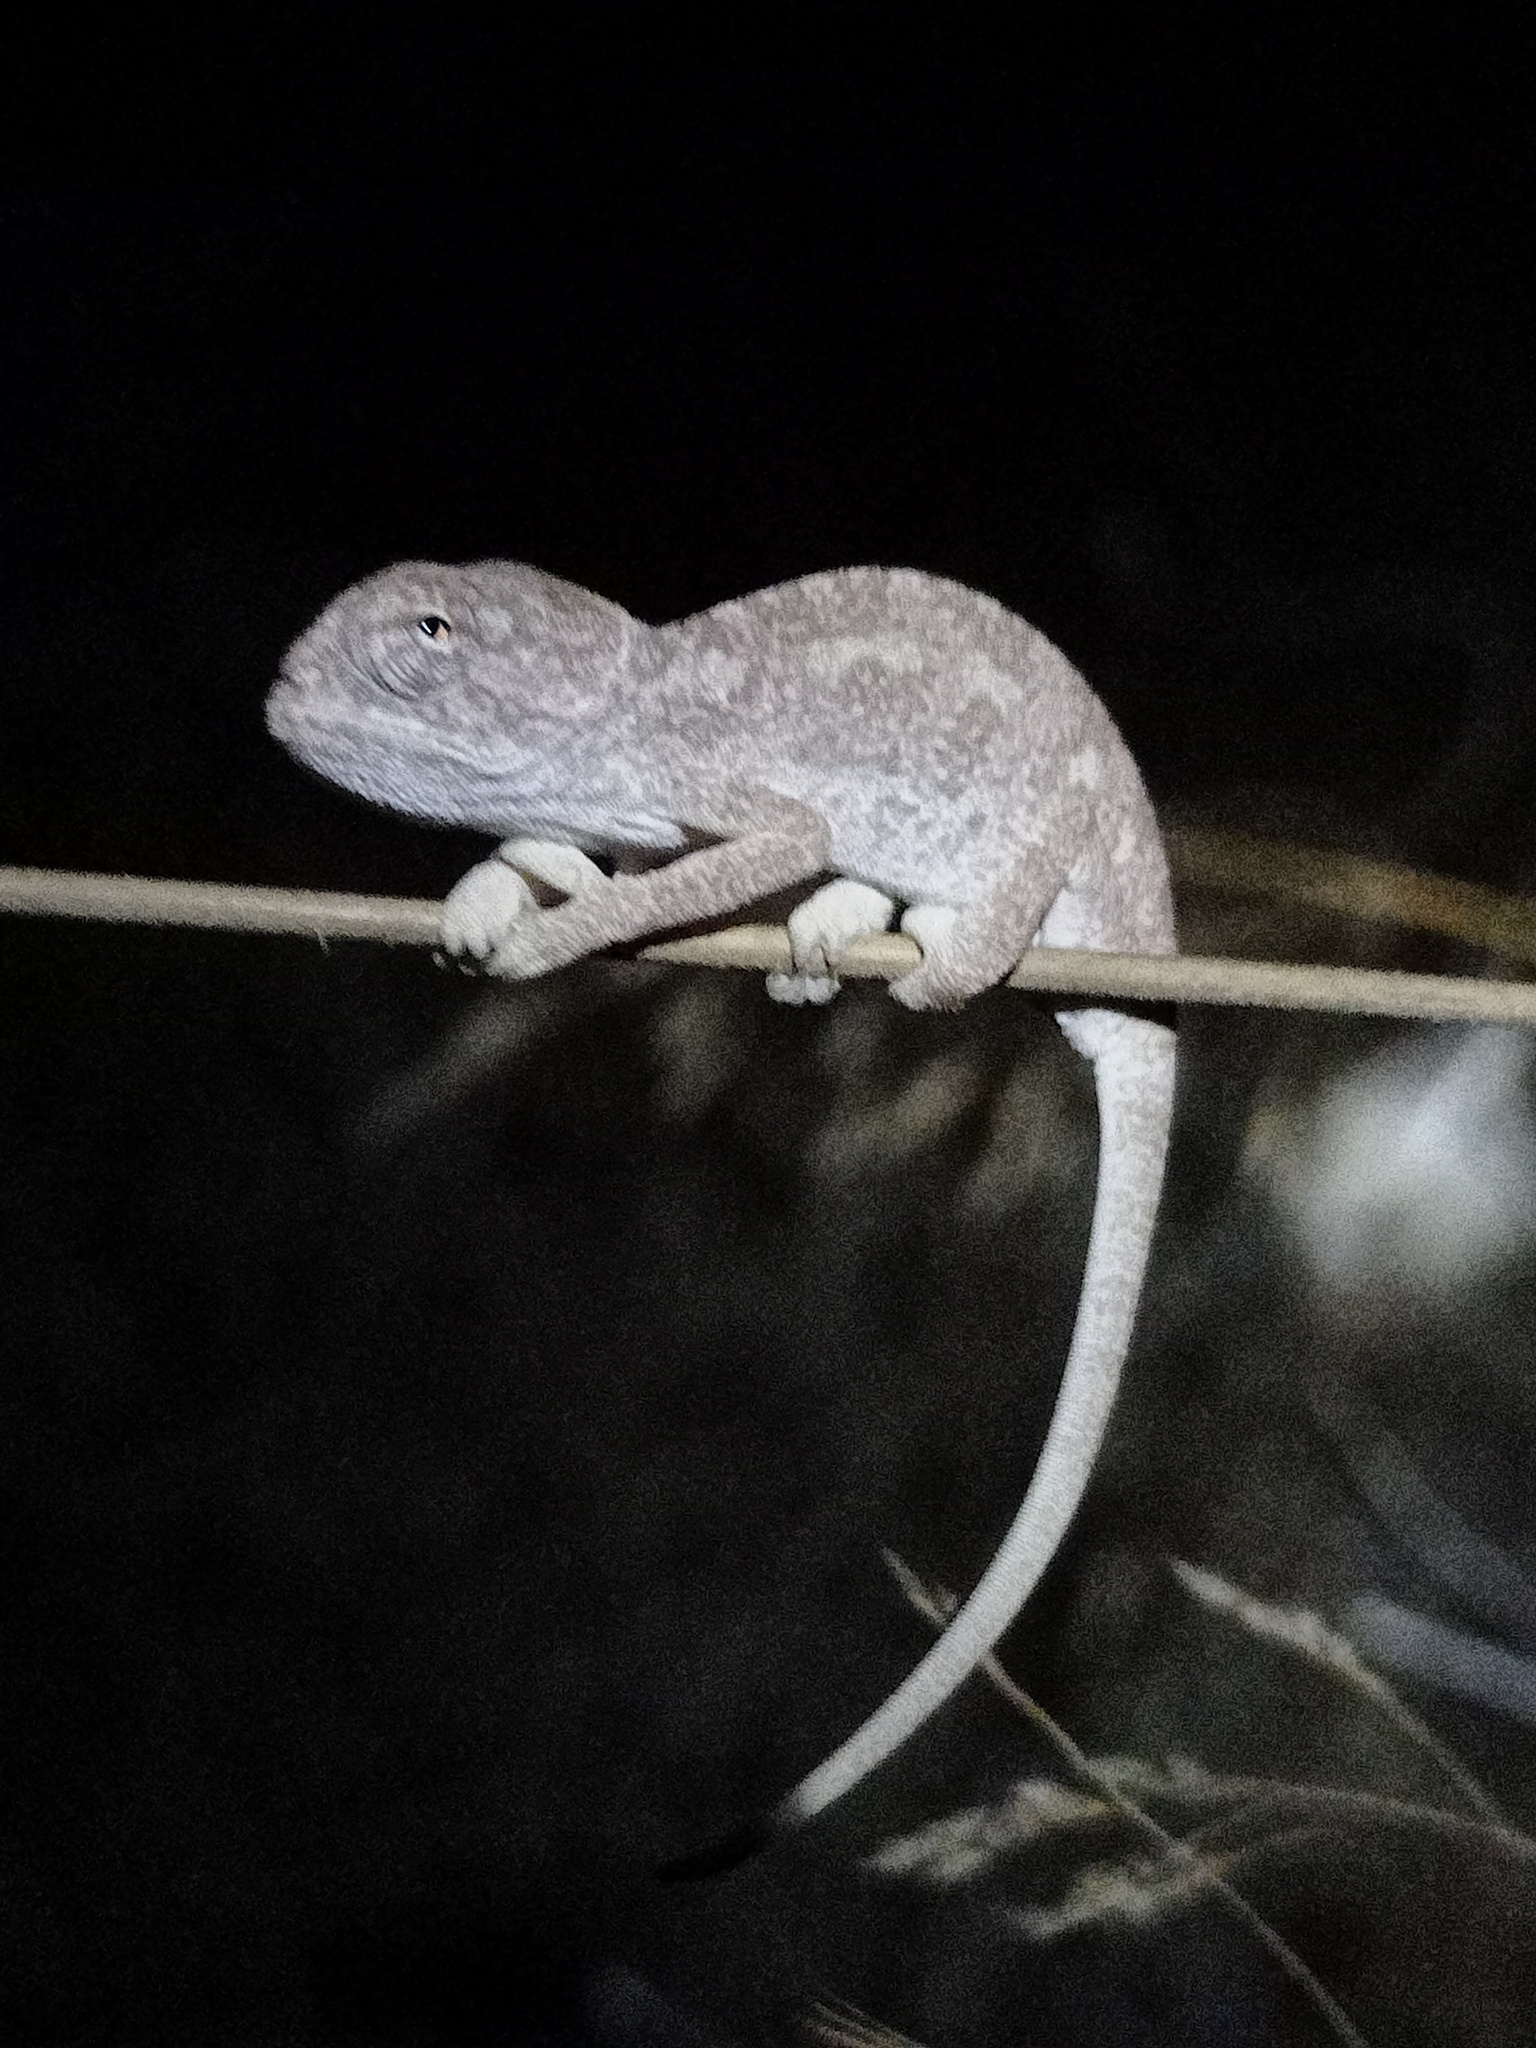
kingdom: Animalia
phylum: Chordata
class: Squamata
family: Chamaeleonidae
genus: Chamaeleo
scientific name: Chamaeleo chamaeleon
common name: Mediterranean chameleon
